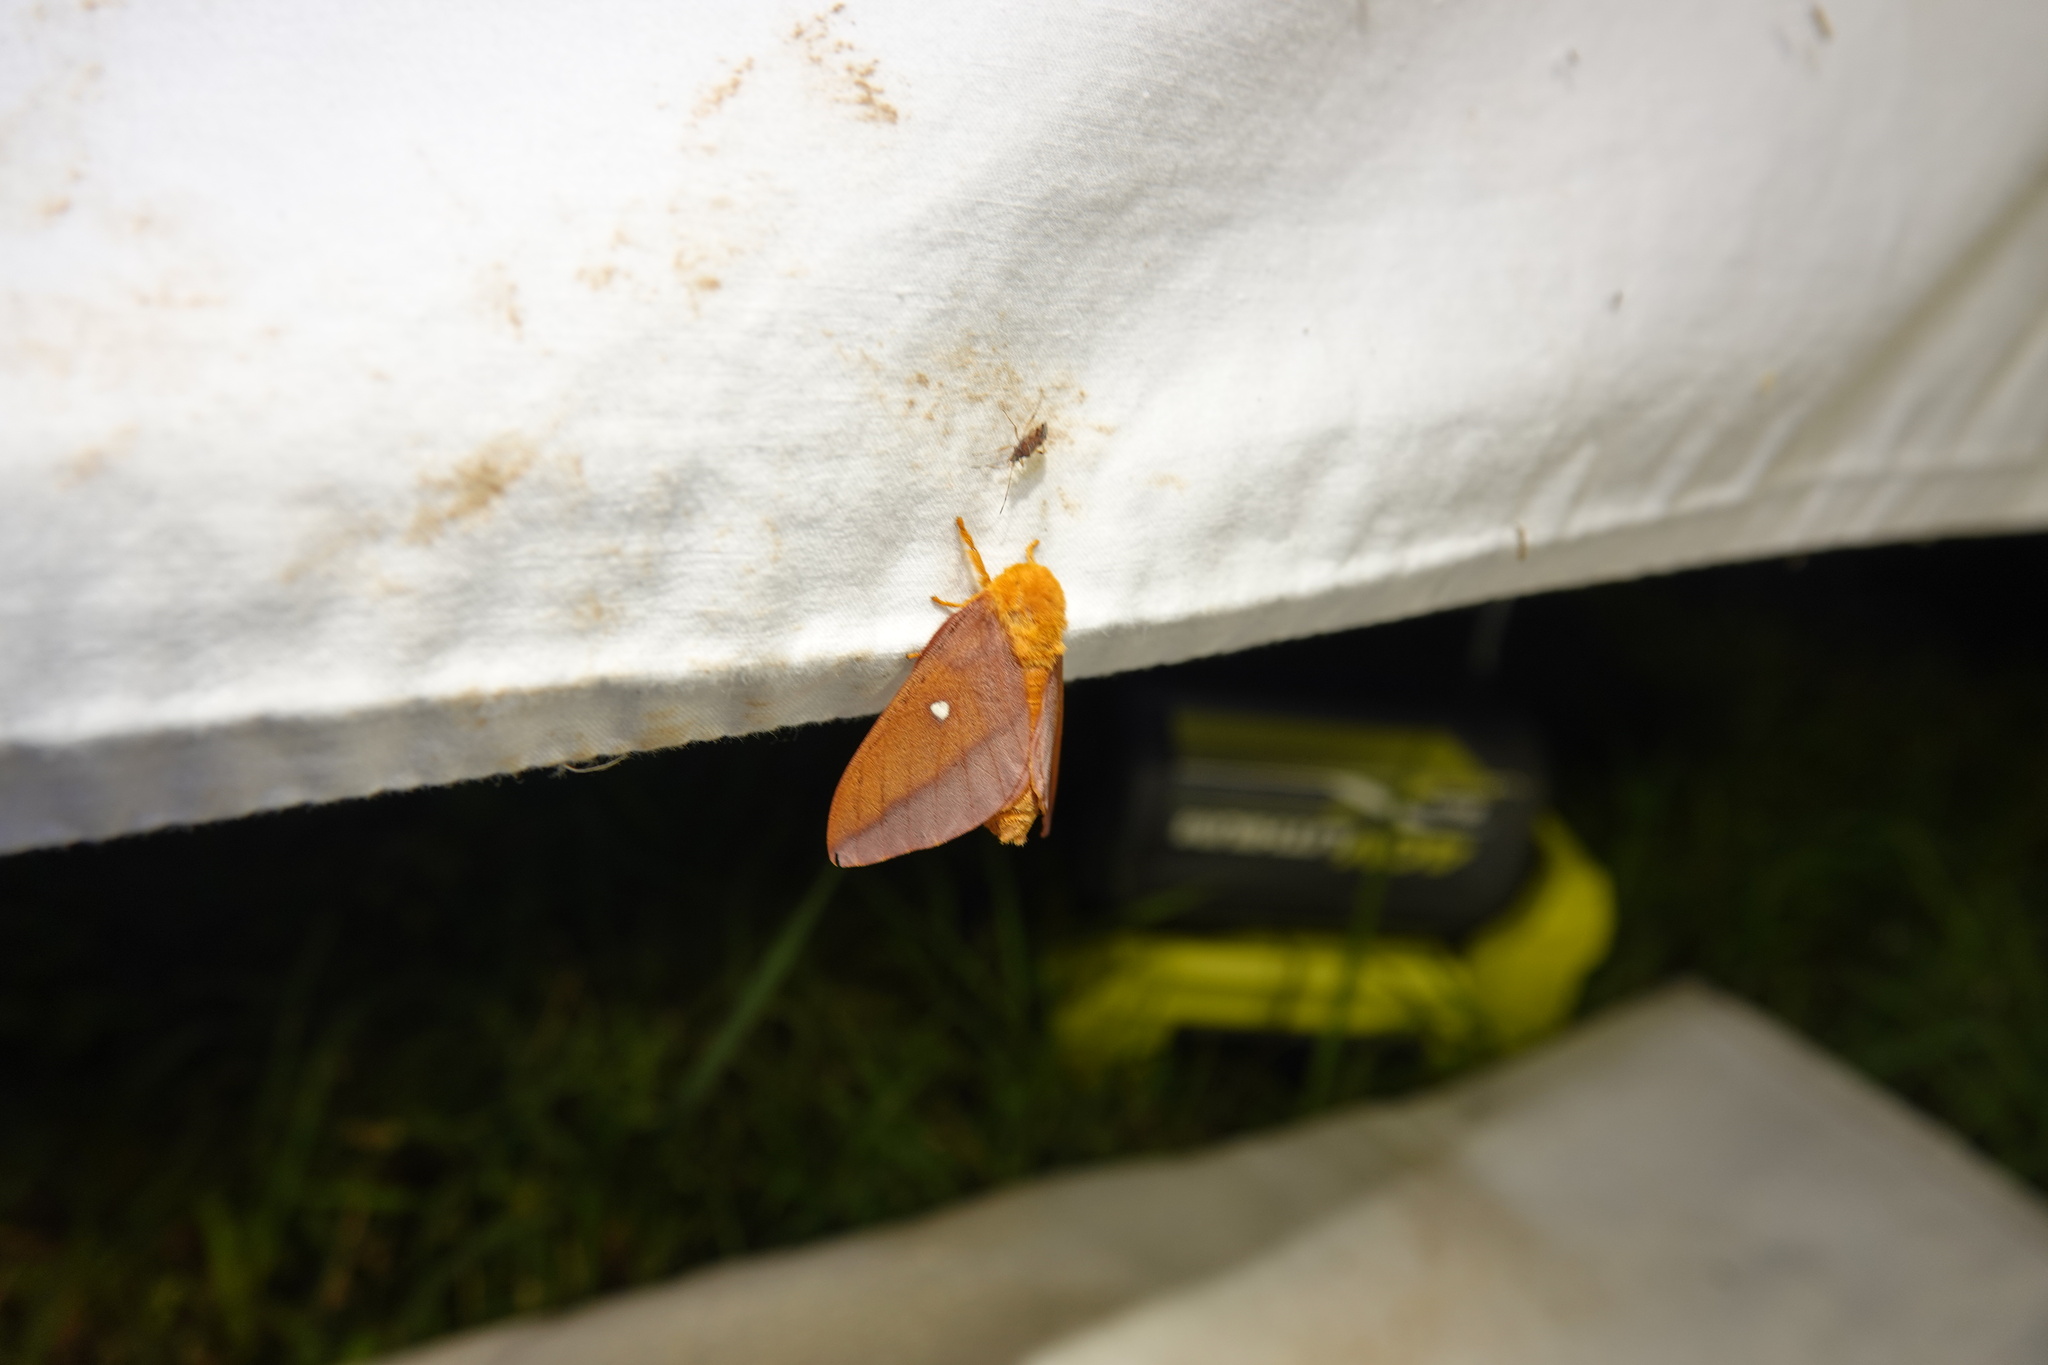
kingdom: Animalia
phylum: Arthropoda
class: Insecta
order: Lepidoptera
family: Saturniidae
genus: Anisota
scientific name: Anisota virginiensis
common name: Pink striped oakworm moth
